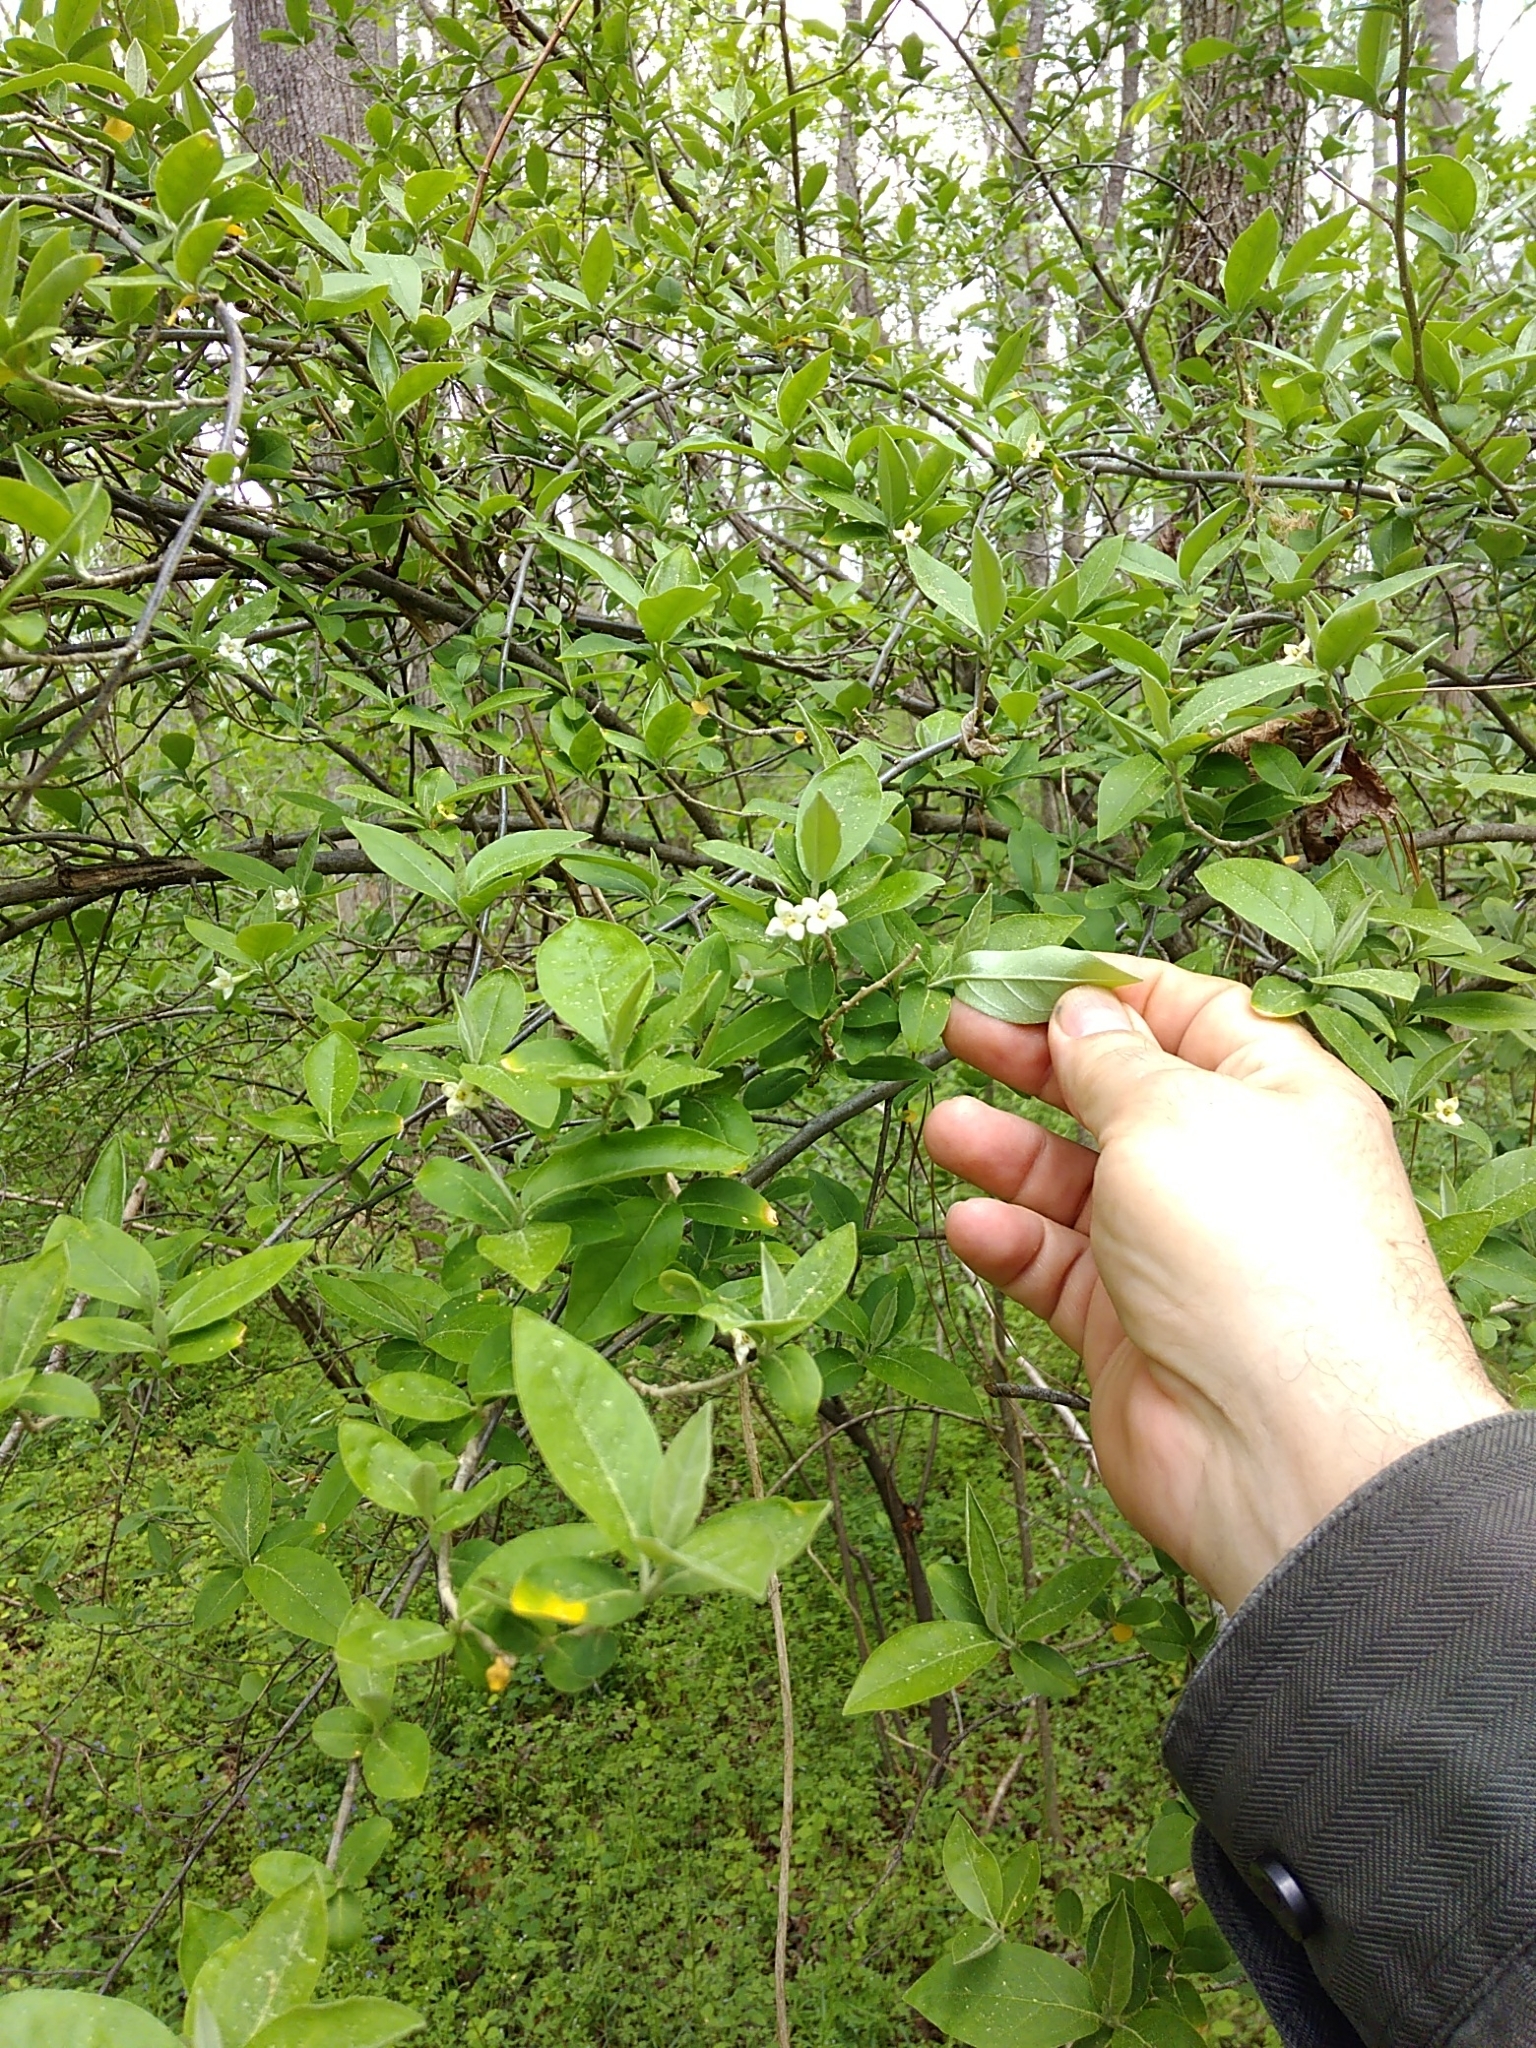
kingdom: Plantae
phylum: Tracheophyta
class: Magnoliopsida
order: Rosales
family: Elaeagnaceae
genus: Elaeagnus
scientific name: Elaeagnus umbellata
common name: Autumn olive
